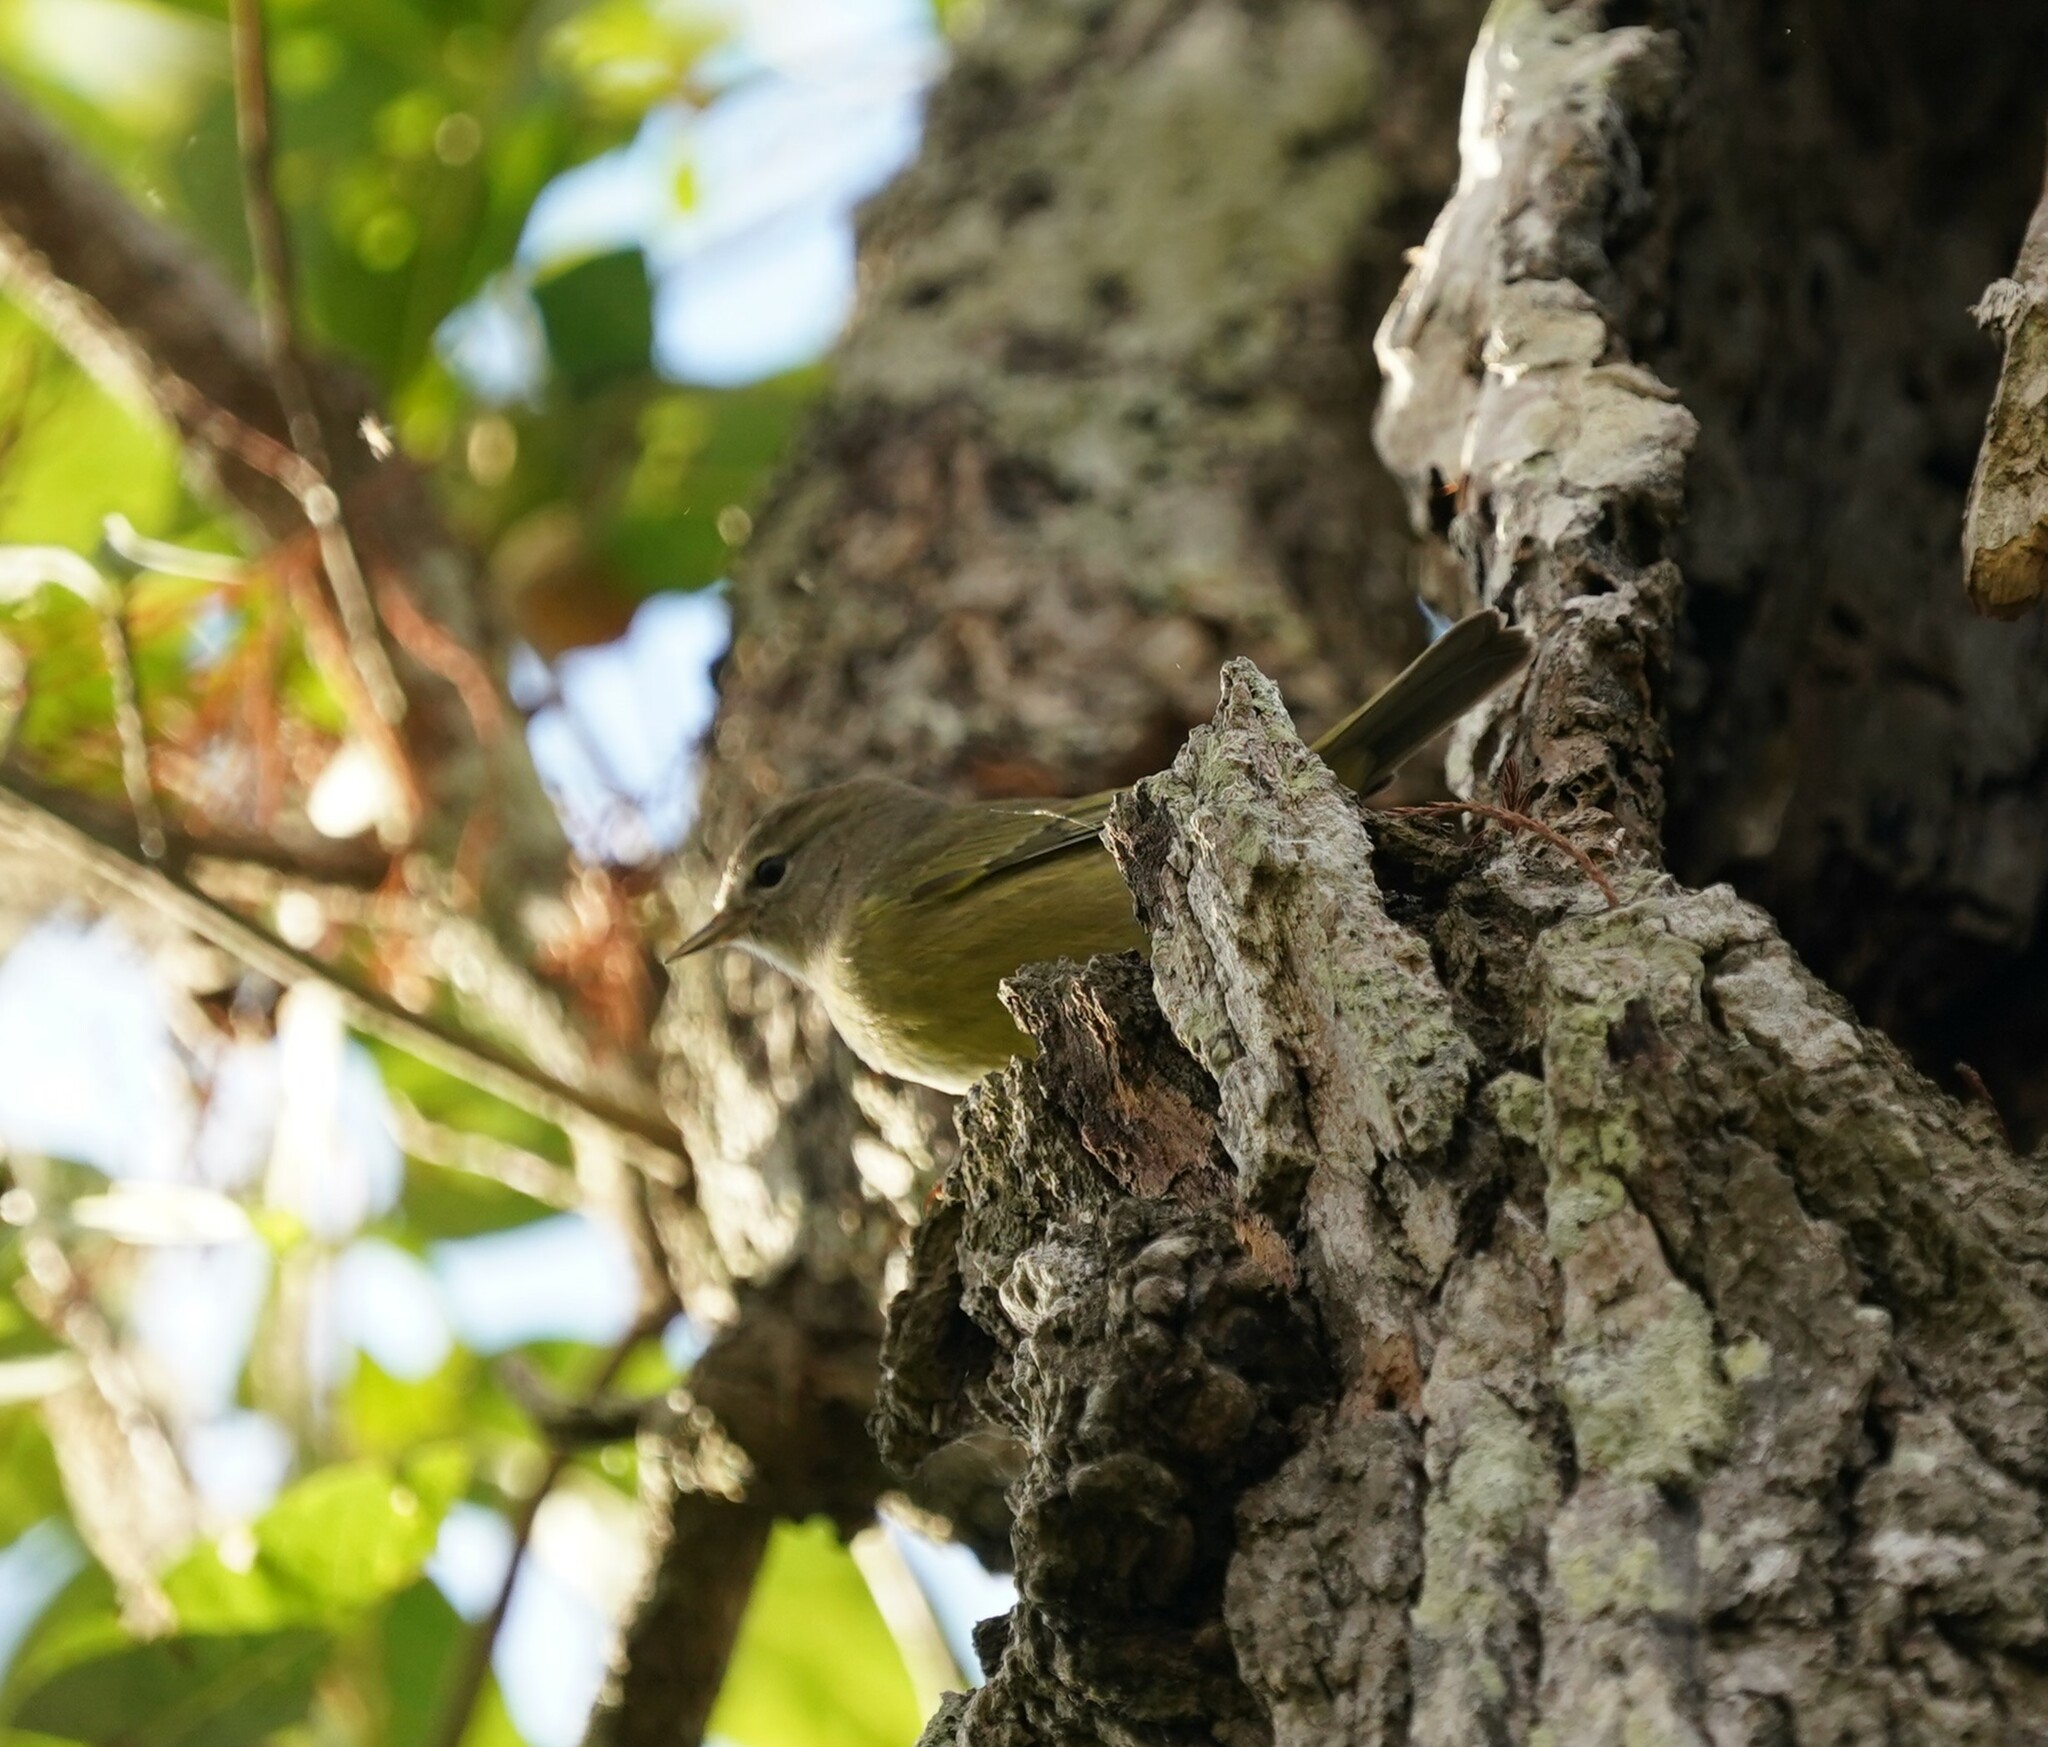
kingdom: Animalia
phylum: Chordata
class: Aves
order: Passeriformes
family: Parulidae
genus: Leiothlypis
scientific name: Leiothlypis celata
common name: Orange-crowned warbler
